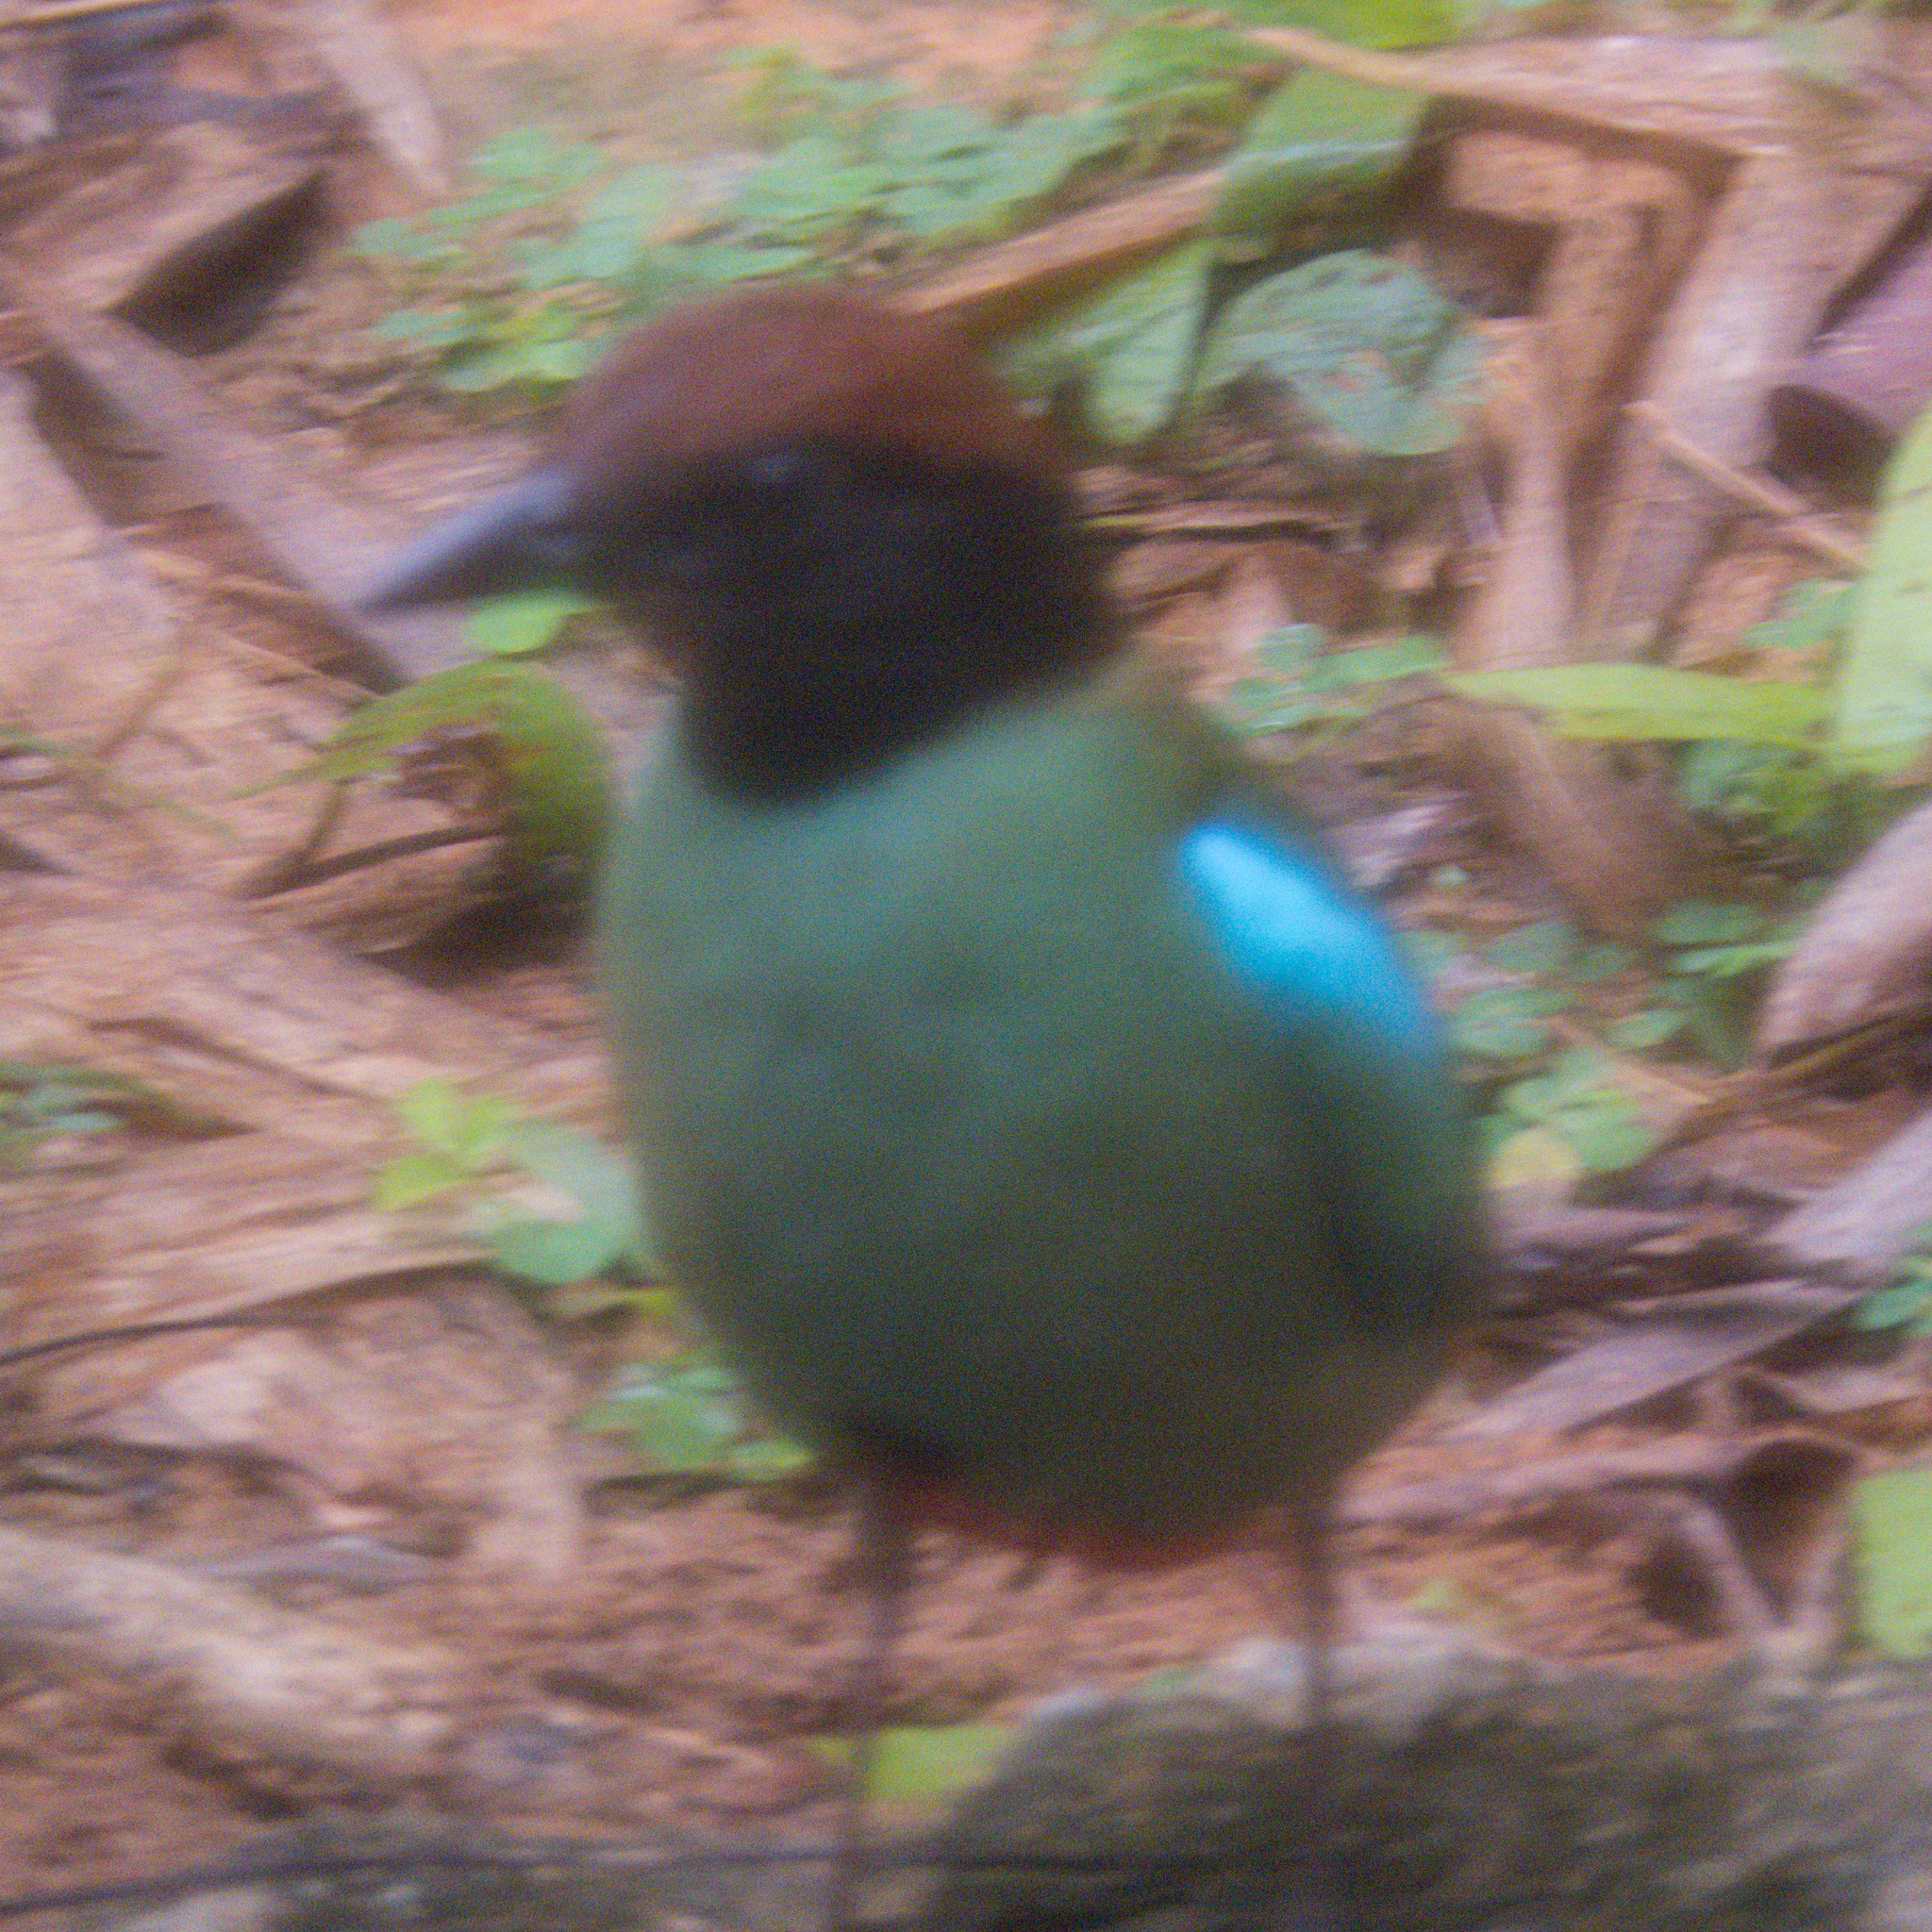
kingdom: Animalia
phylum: Chordata
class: Aves
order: Passeriformes
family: Pittidae
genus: Pitta
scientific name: Pitta sordida
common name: Hooded pitta
